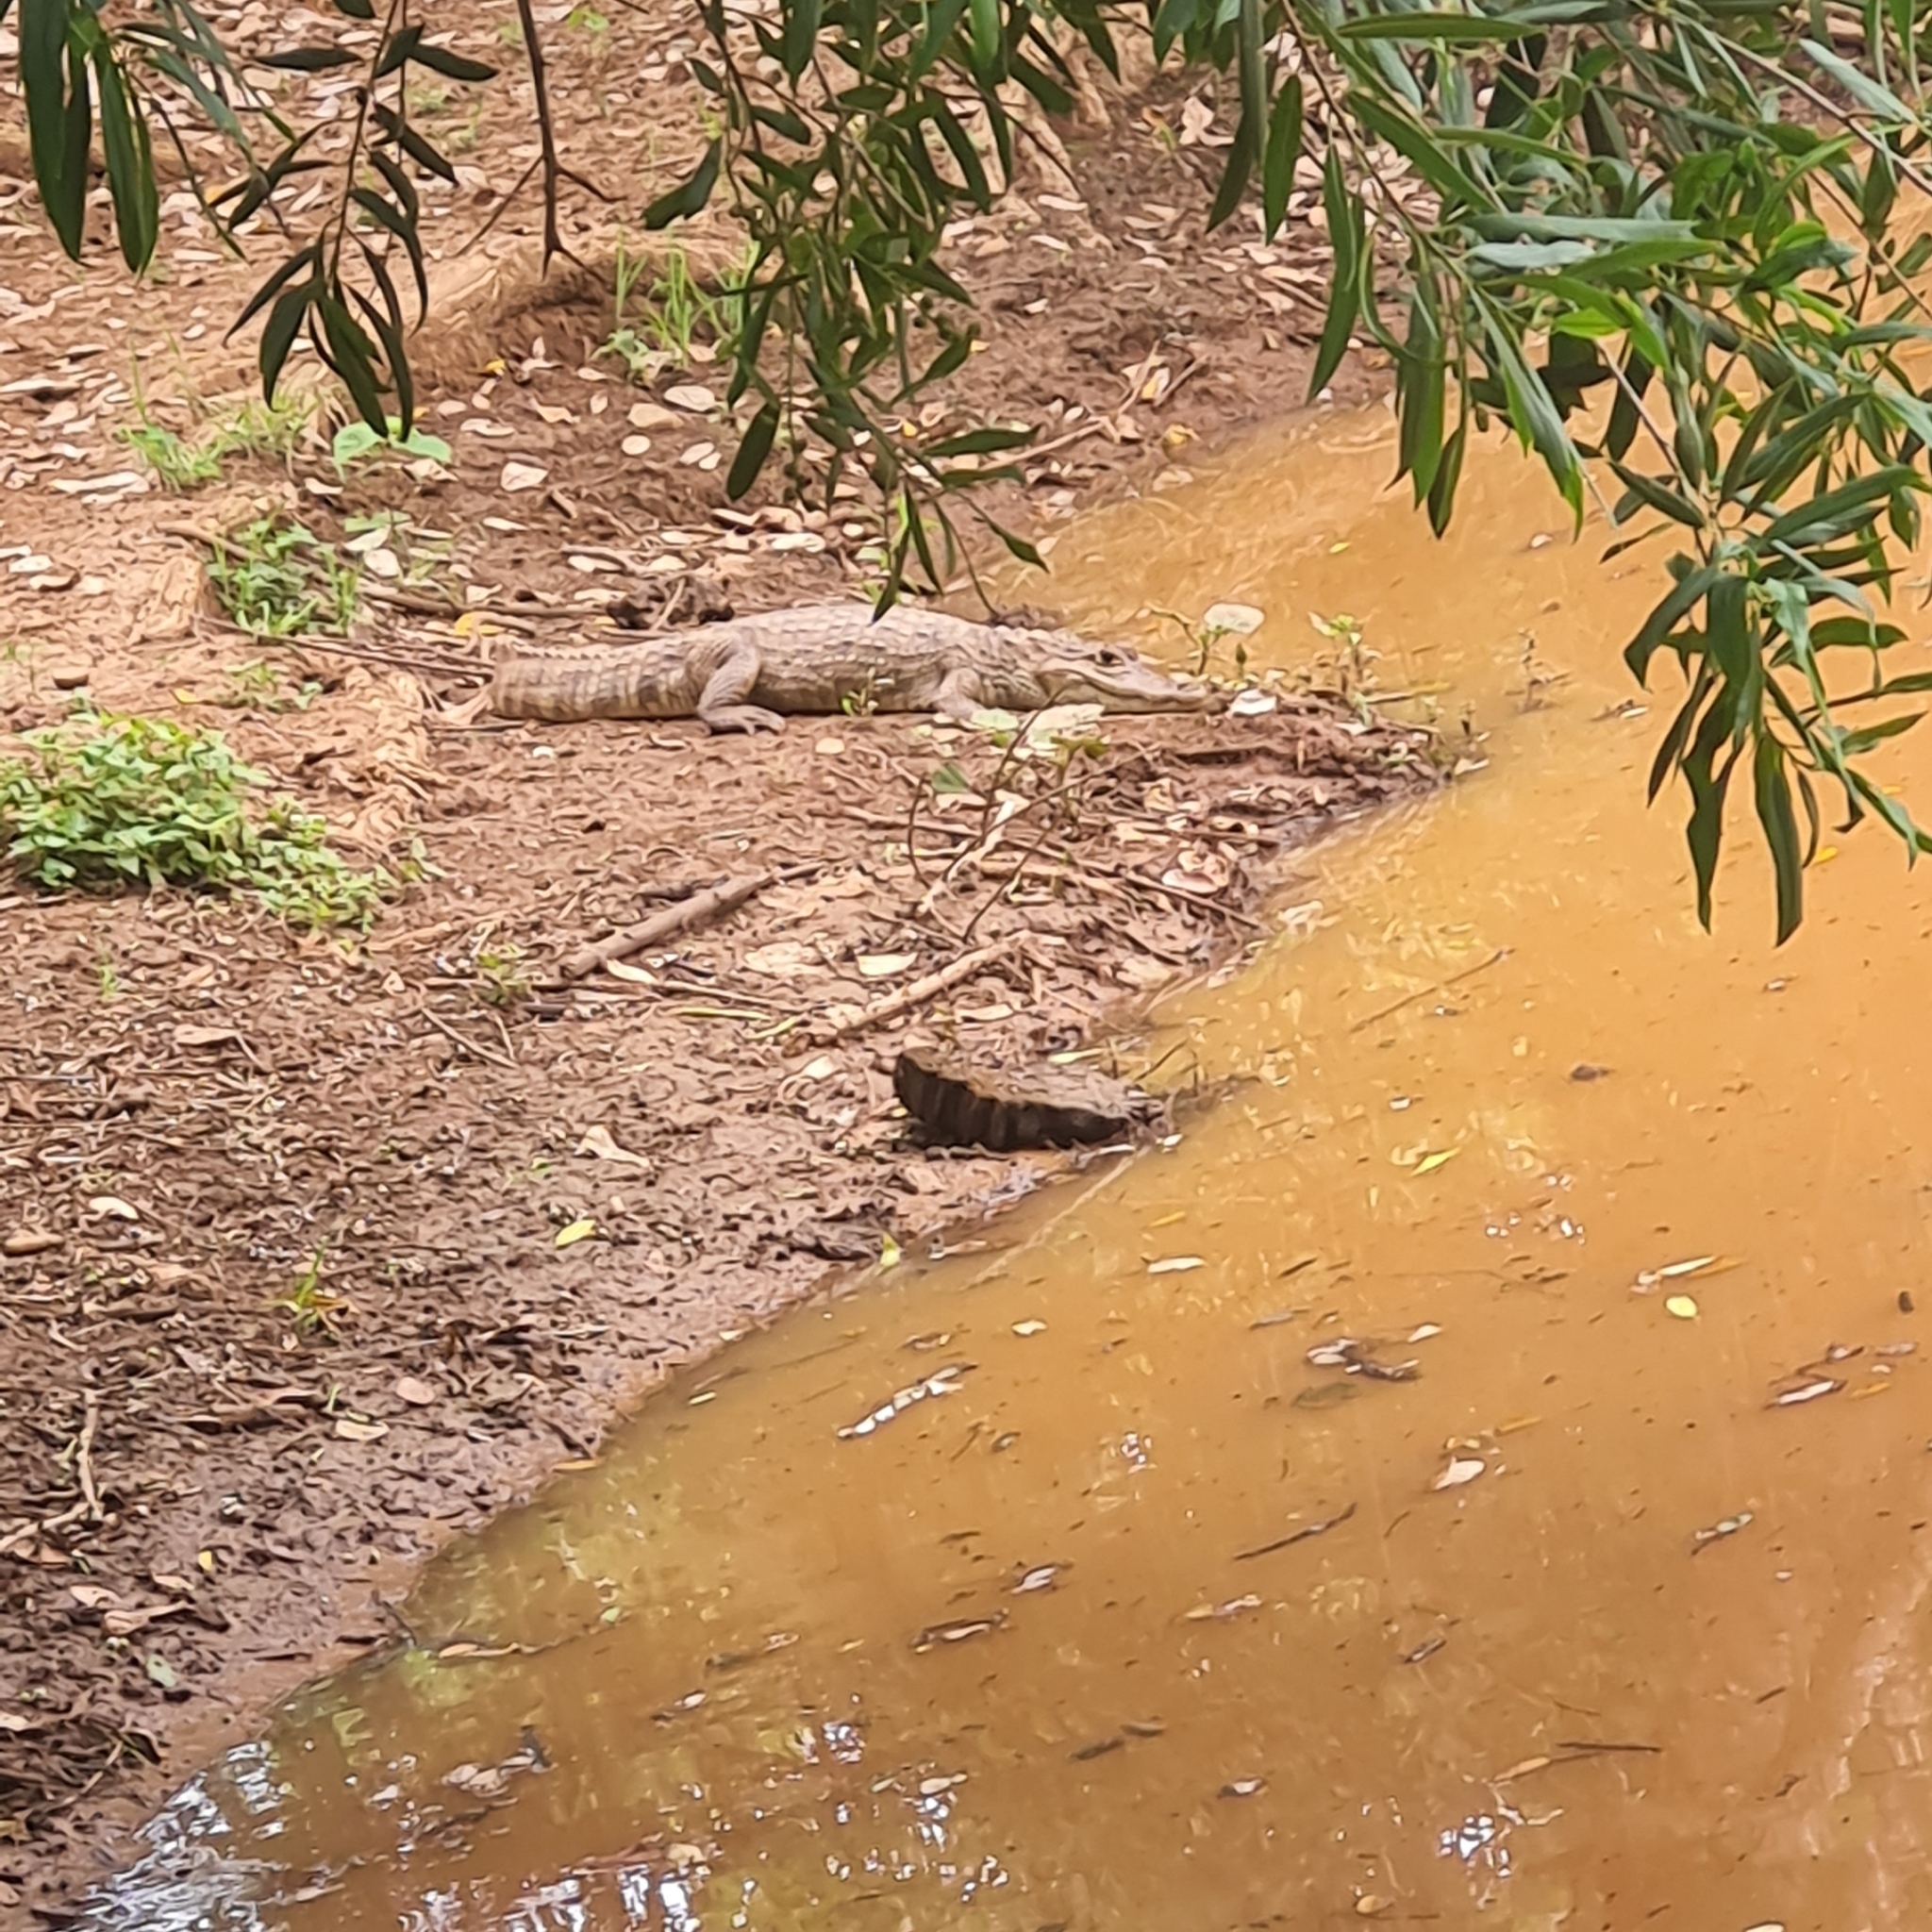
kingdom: Animalia
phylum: Chordata
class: Crocodylia
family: Alligatoridae
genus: Caiman
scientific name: Caiman crocodilus
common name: Common caiman
